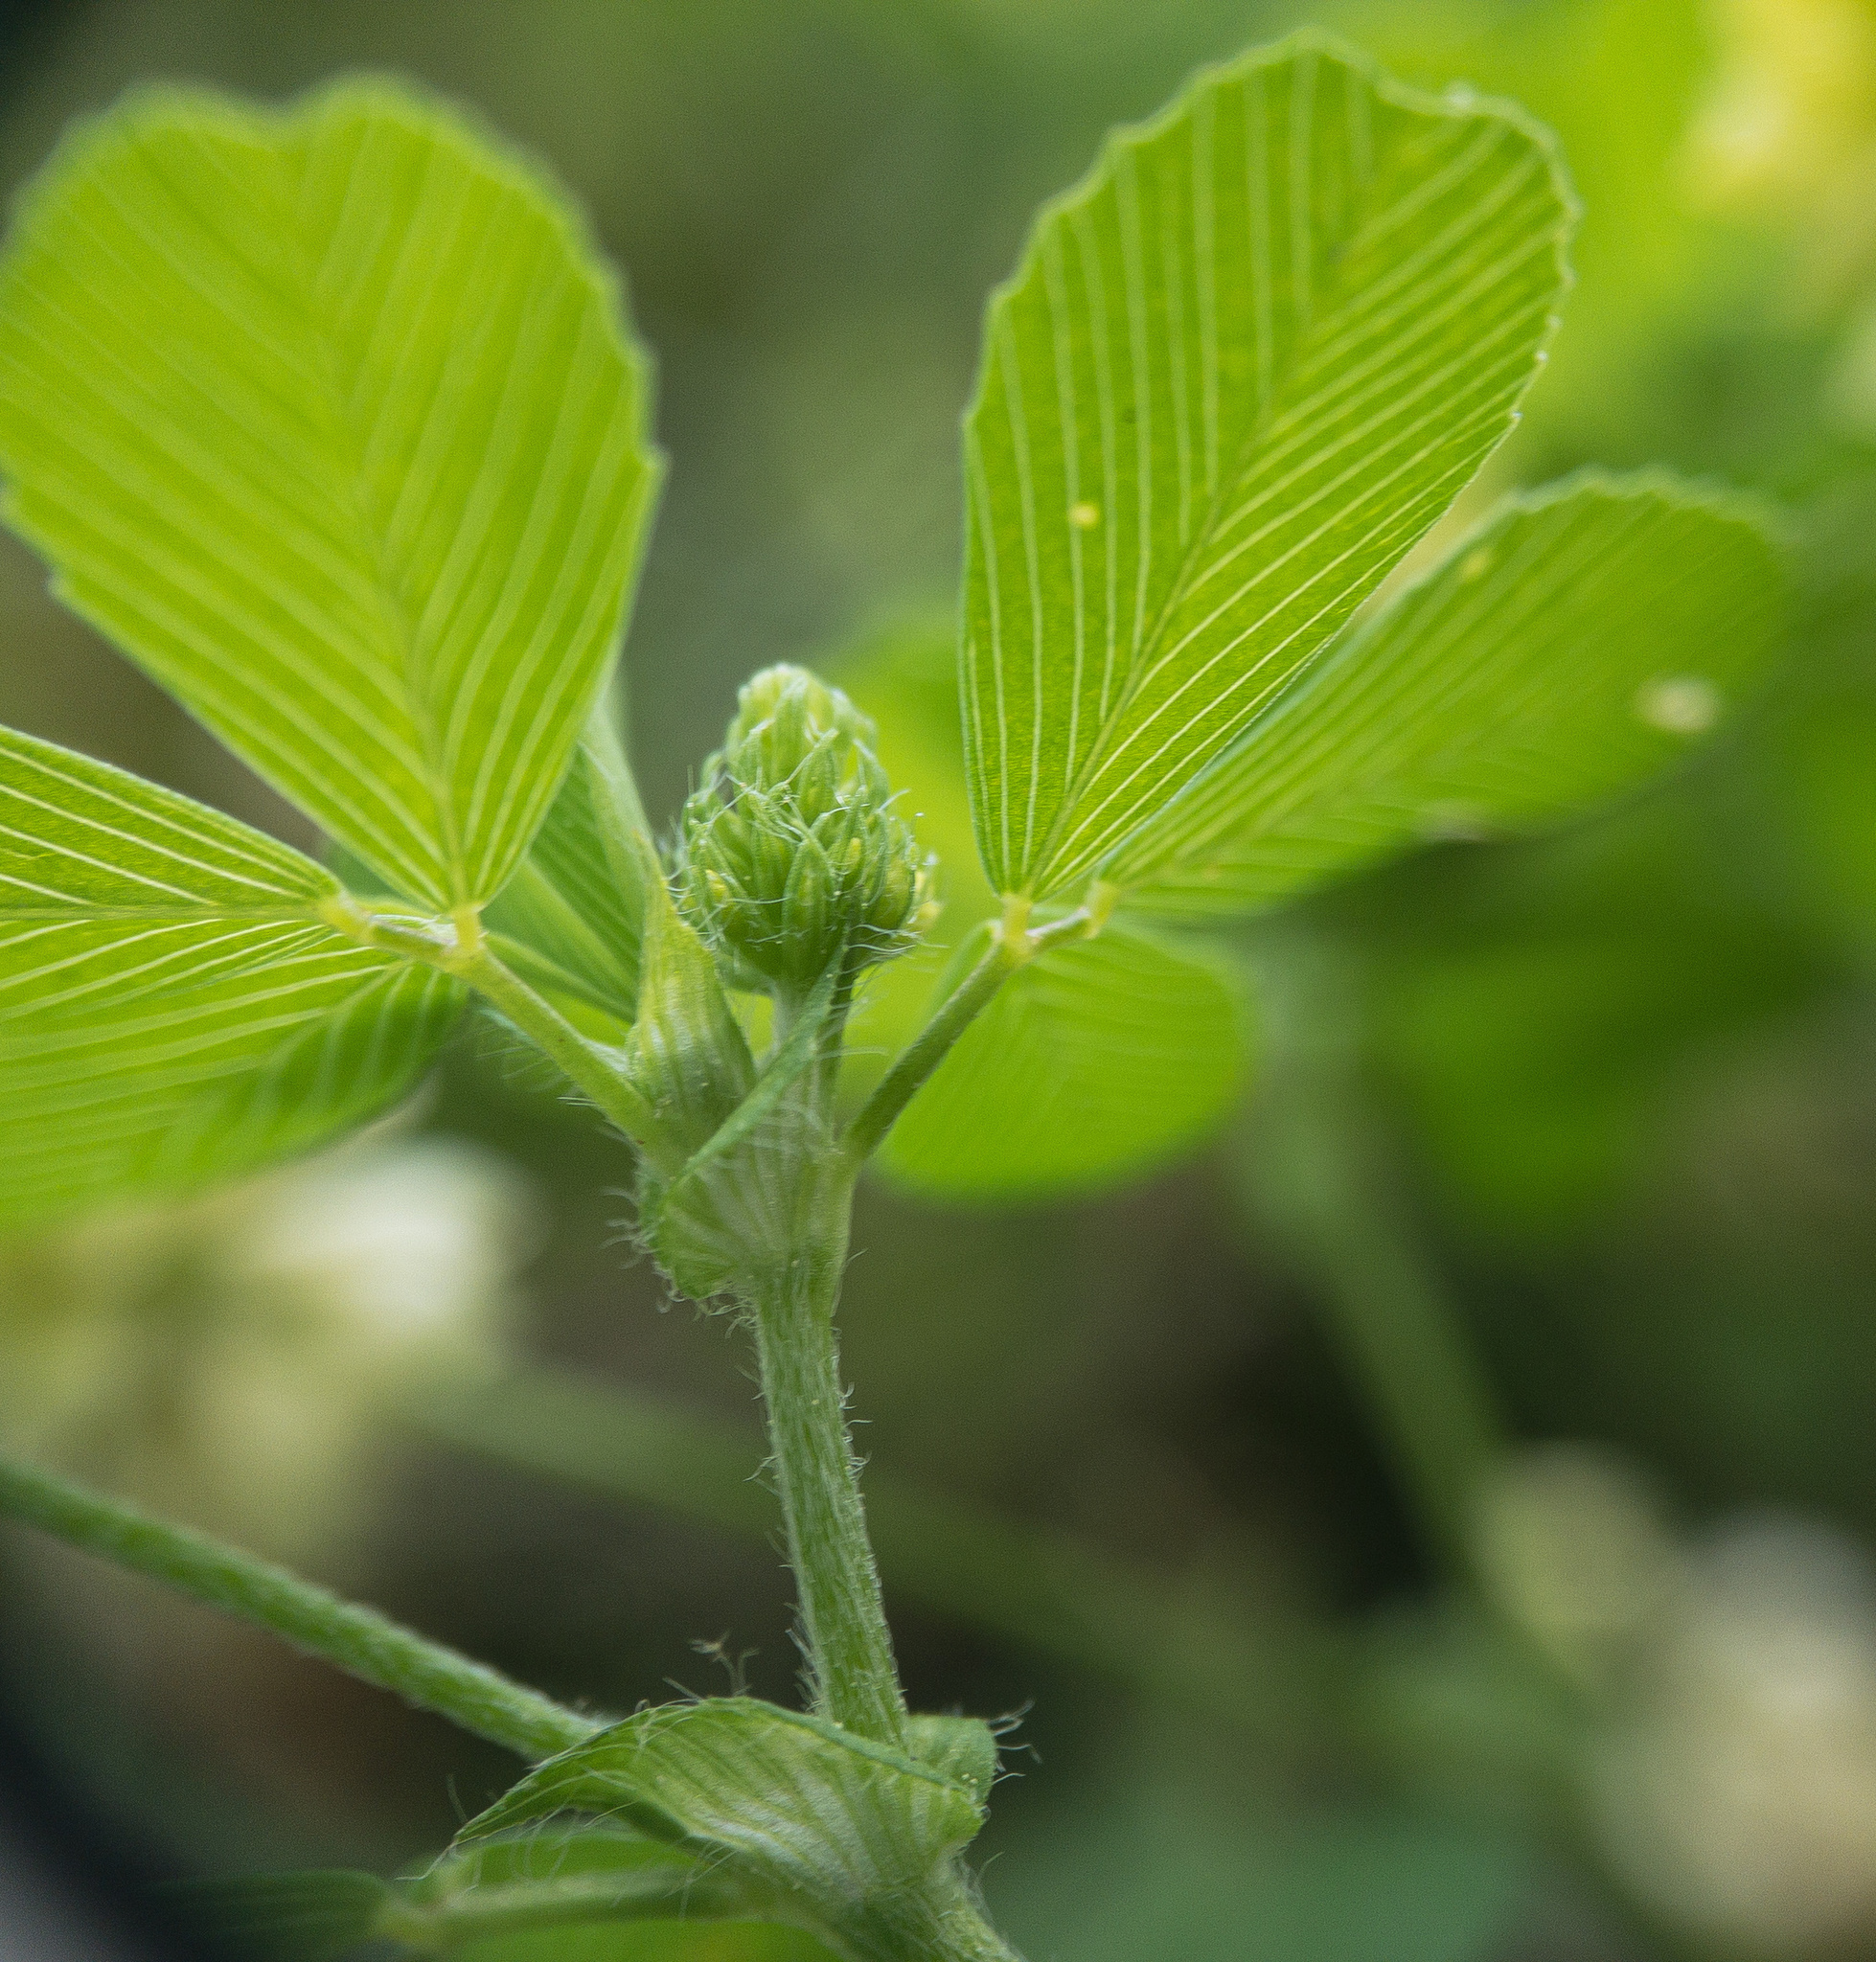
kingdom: Plantae
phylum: Tracheophyta
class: Magnoliopsida
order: Fabales
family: Fabaceae
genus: Trifolium
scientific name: Trifolium campestre
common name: Field clover
